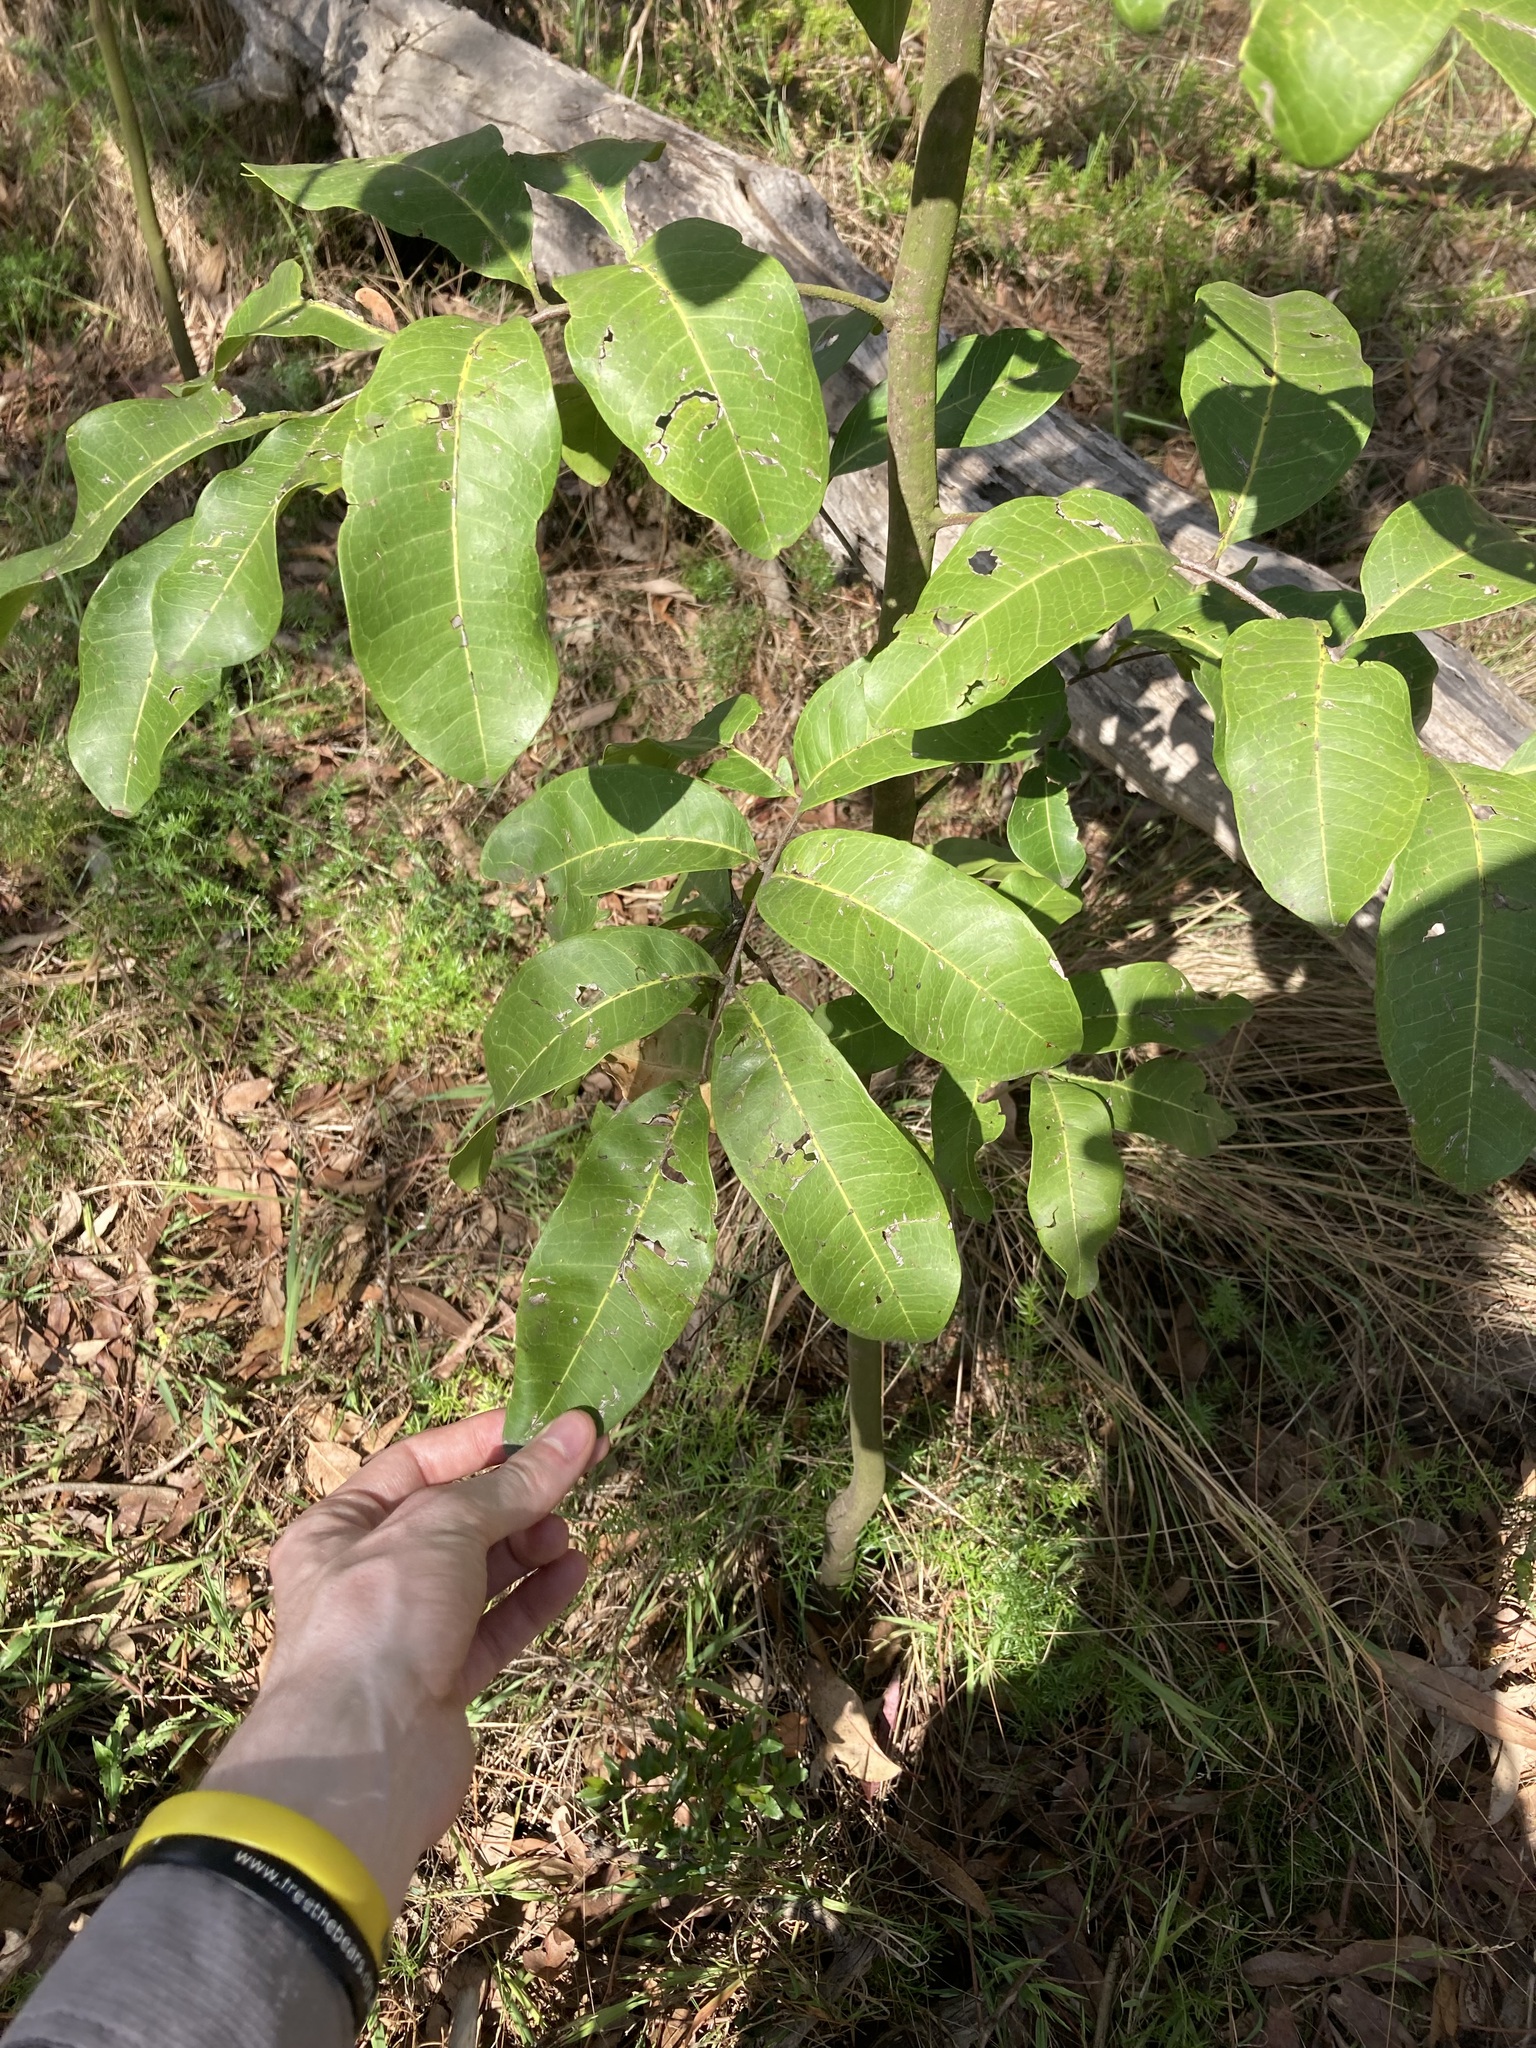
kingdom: Plantae
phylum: Tracheophyta
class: Magnoliopsida
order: Sapindales
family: Sapindaceae
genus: Cupaniopsis
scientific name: Cupaniopsis anacardioides
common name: Carrotwood
